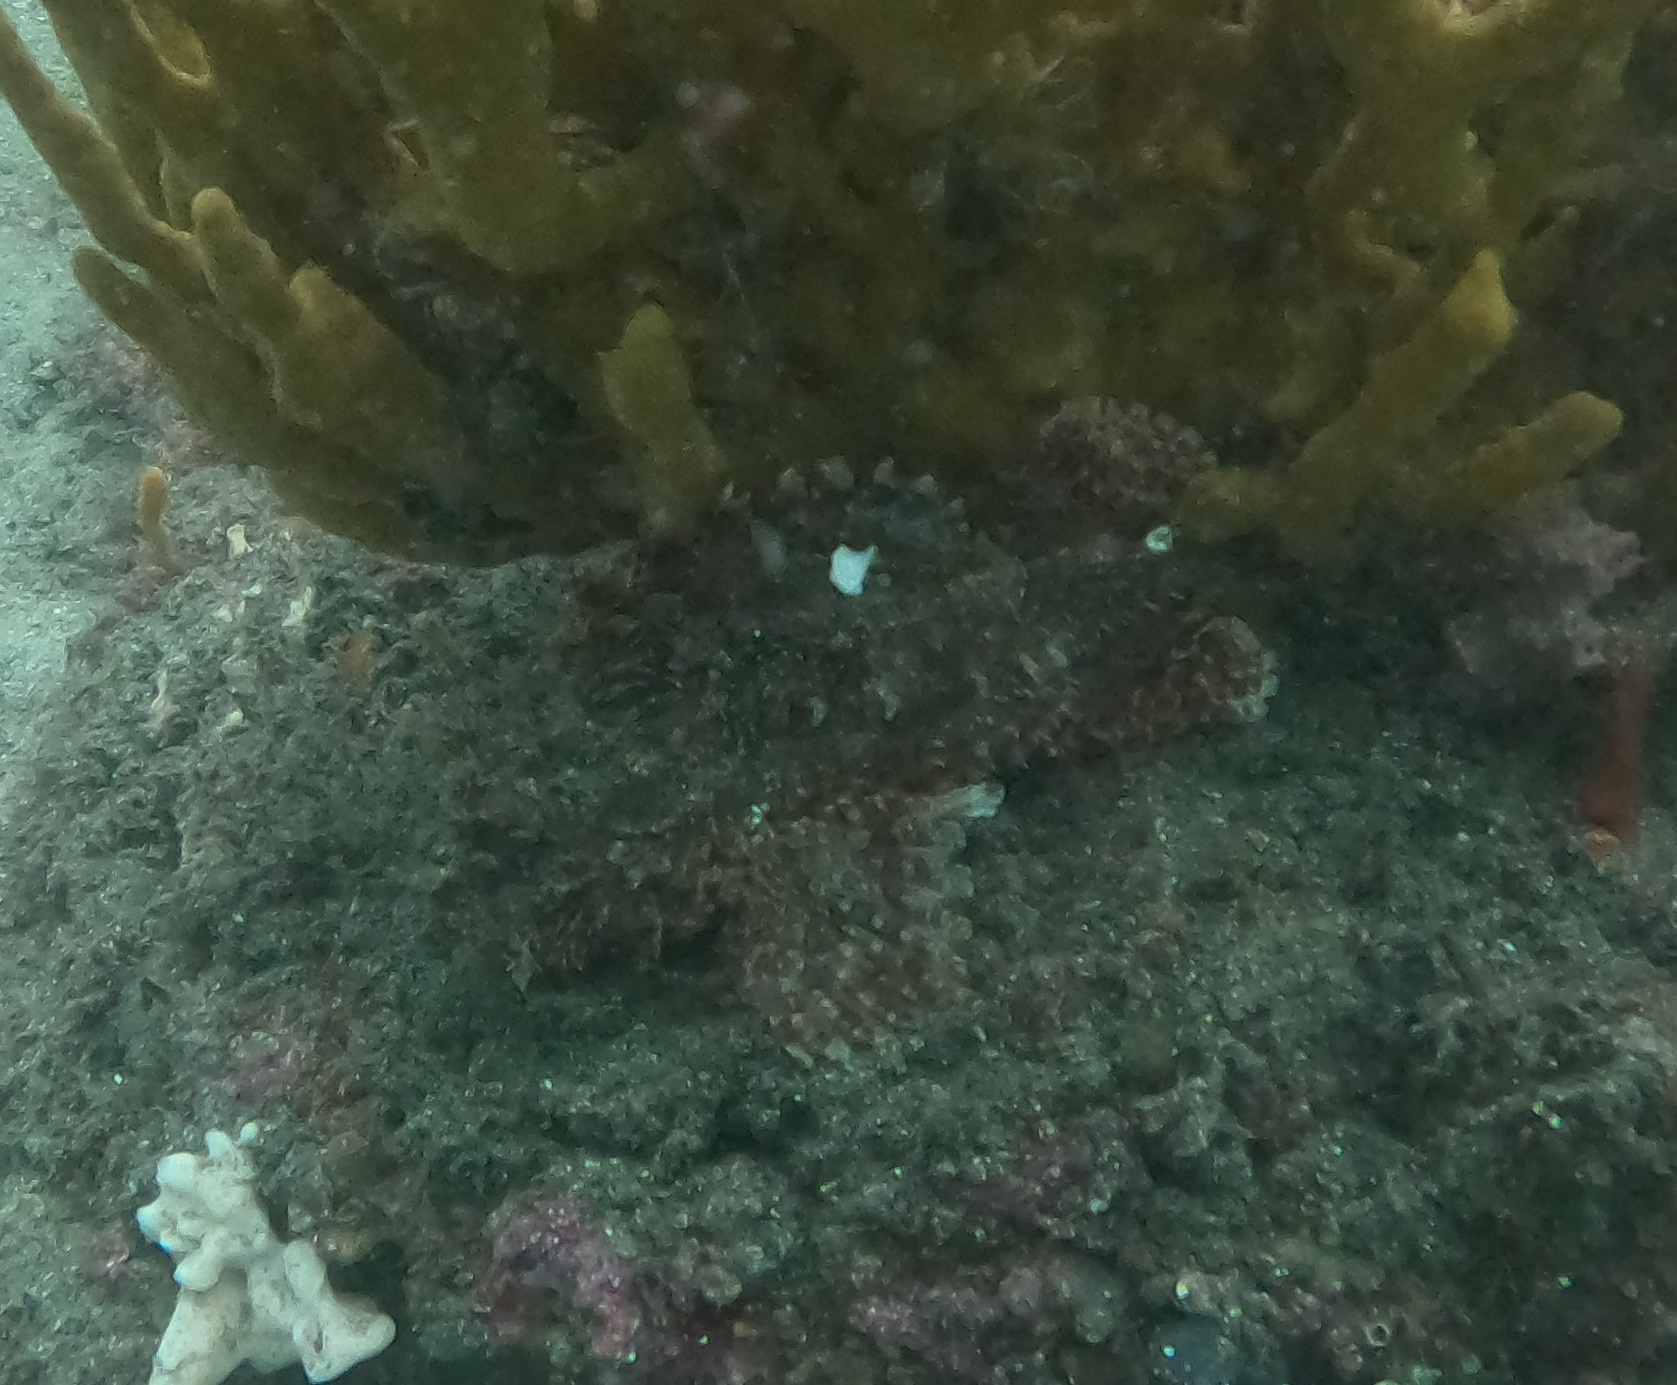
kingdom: Animalia
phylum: Chordata
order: Scorpaeniformes
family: Scorpaenidae
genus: Scorpaena
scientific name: Scorpaena jacksoniensis
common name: Eastern red scorpionfish
